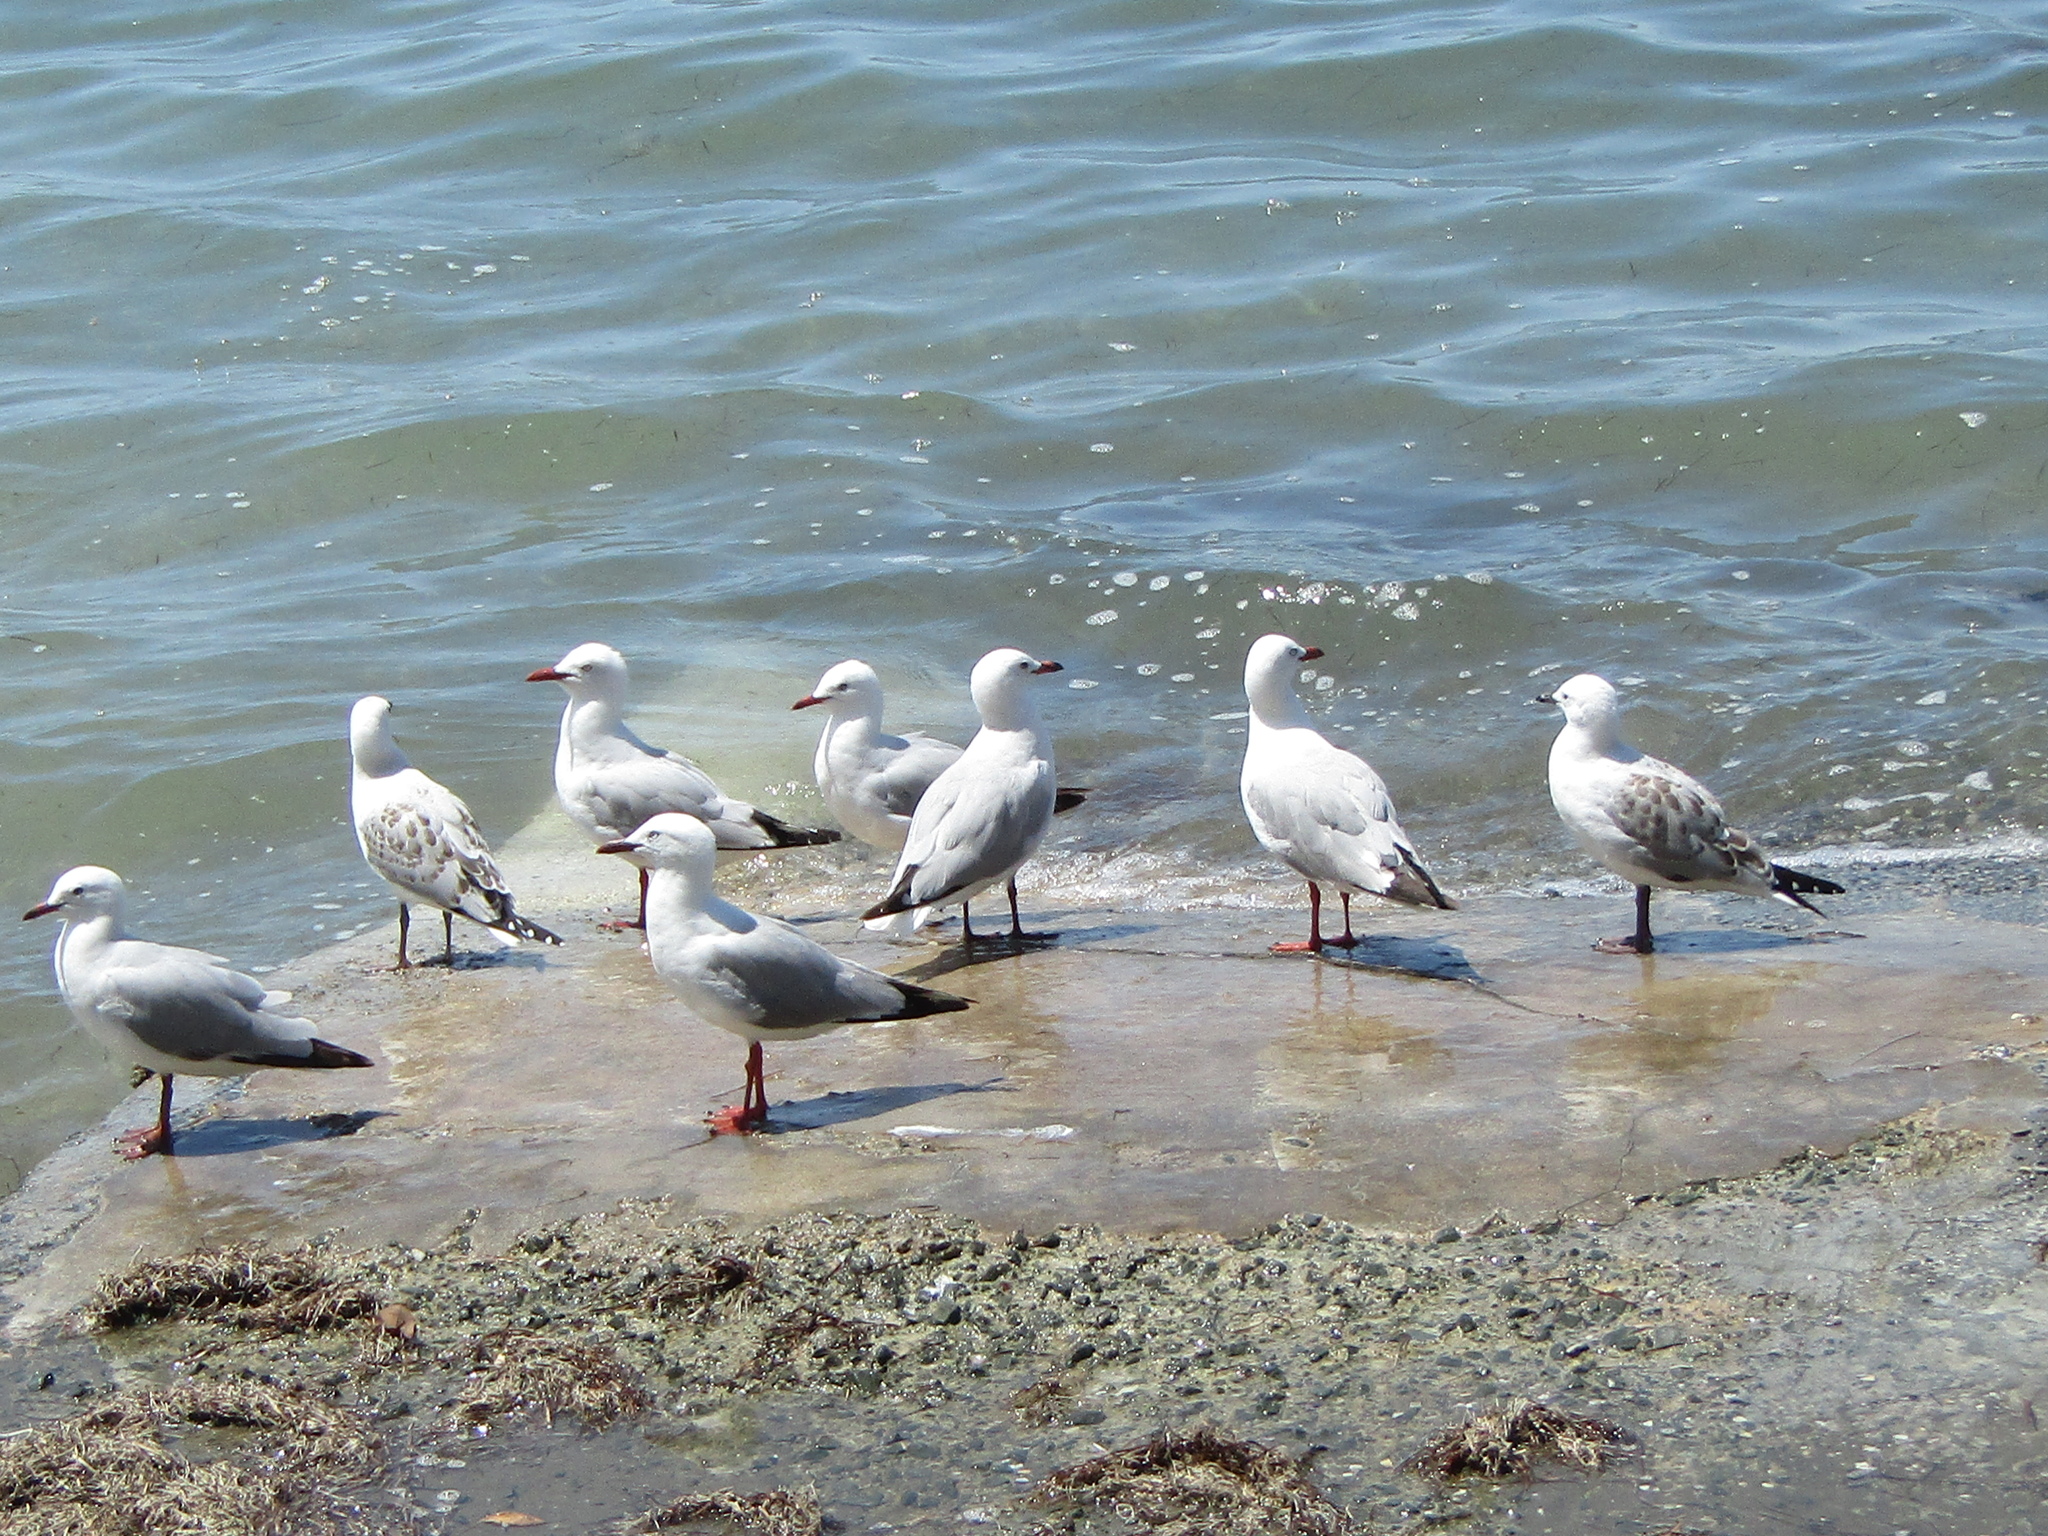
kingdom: Animalia
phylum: Chordata
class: Aves
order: Charadriiformes
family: Laridae
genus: Chroicocephalus
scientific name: Chroicocephalus novaehollandiae
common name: Silver gull
